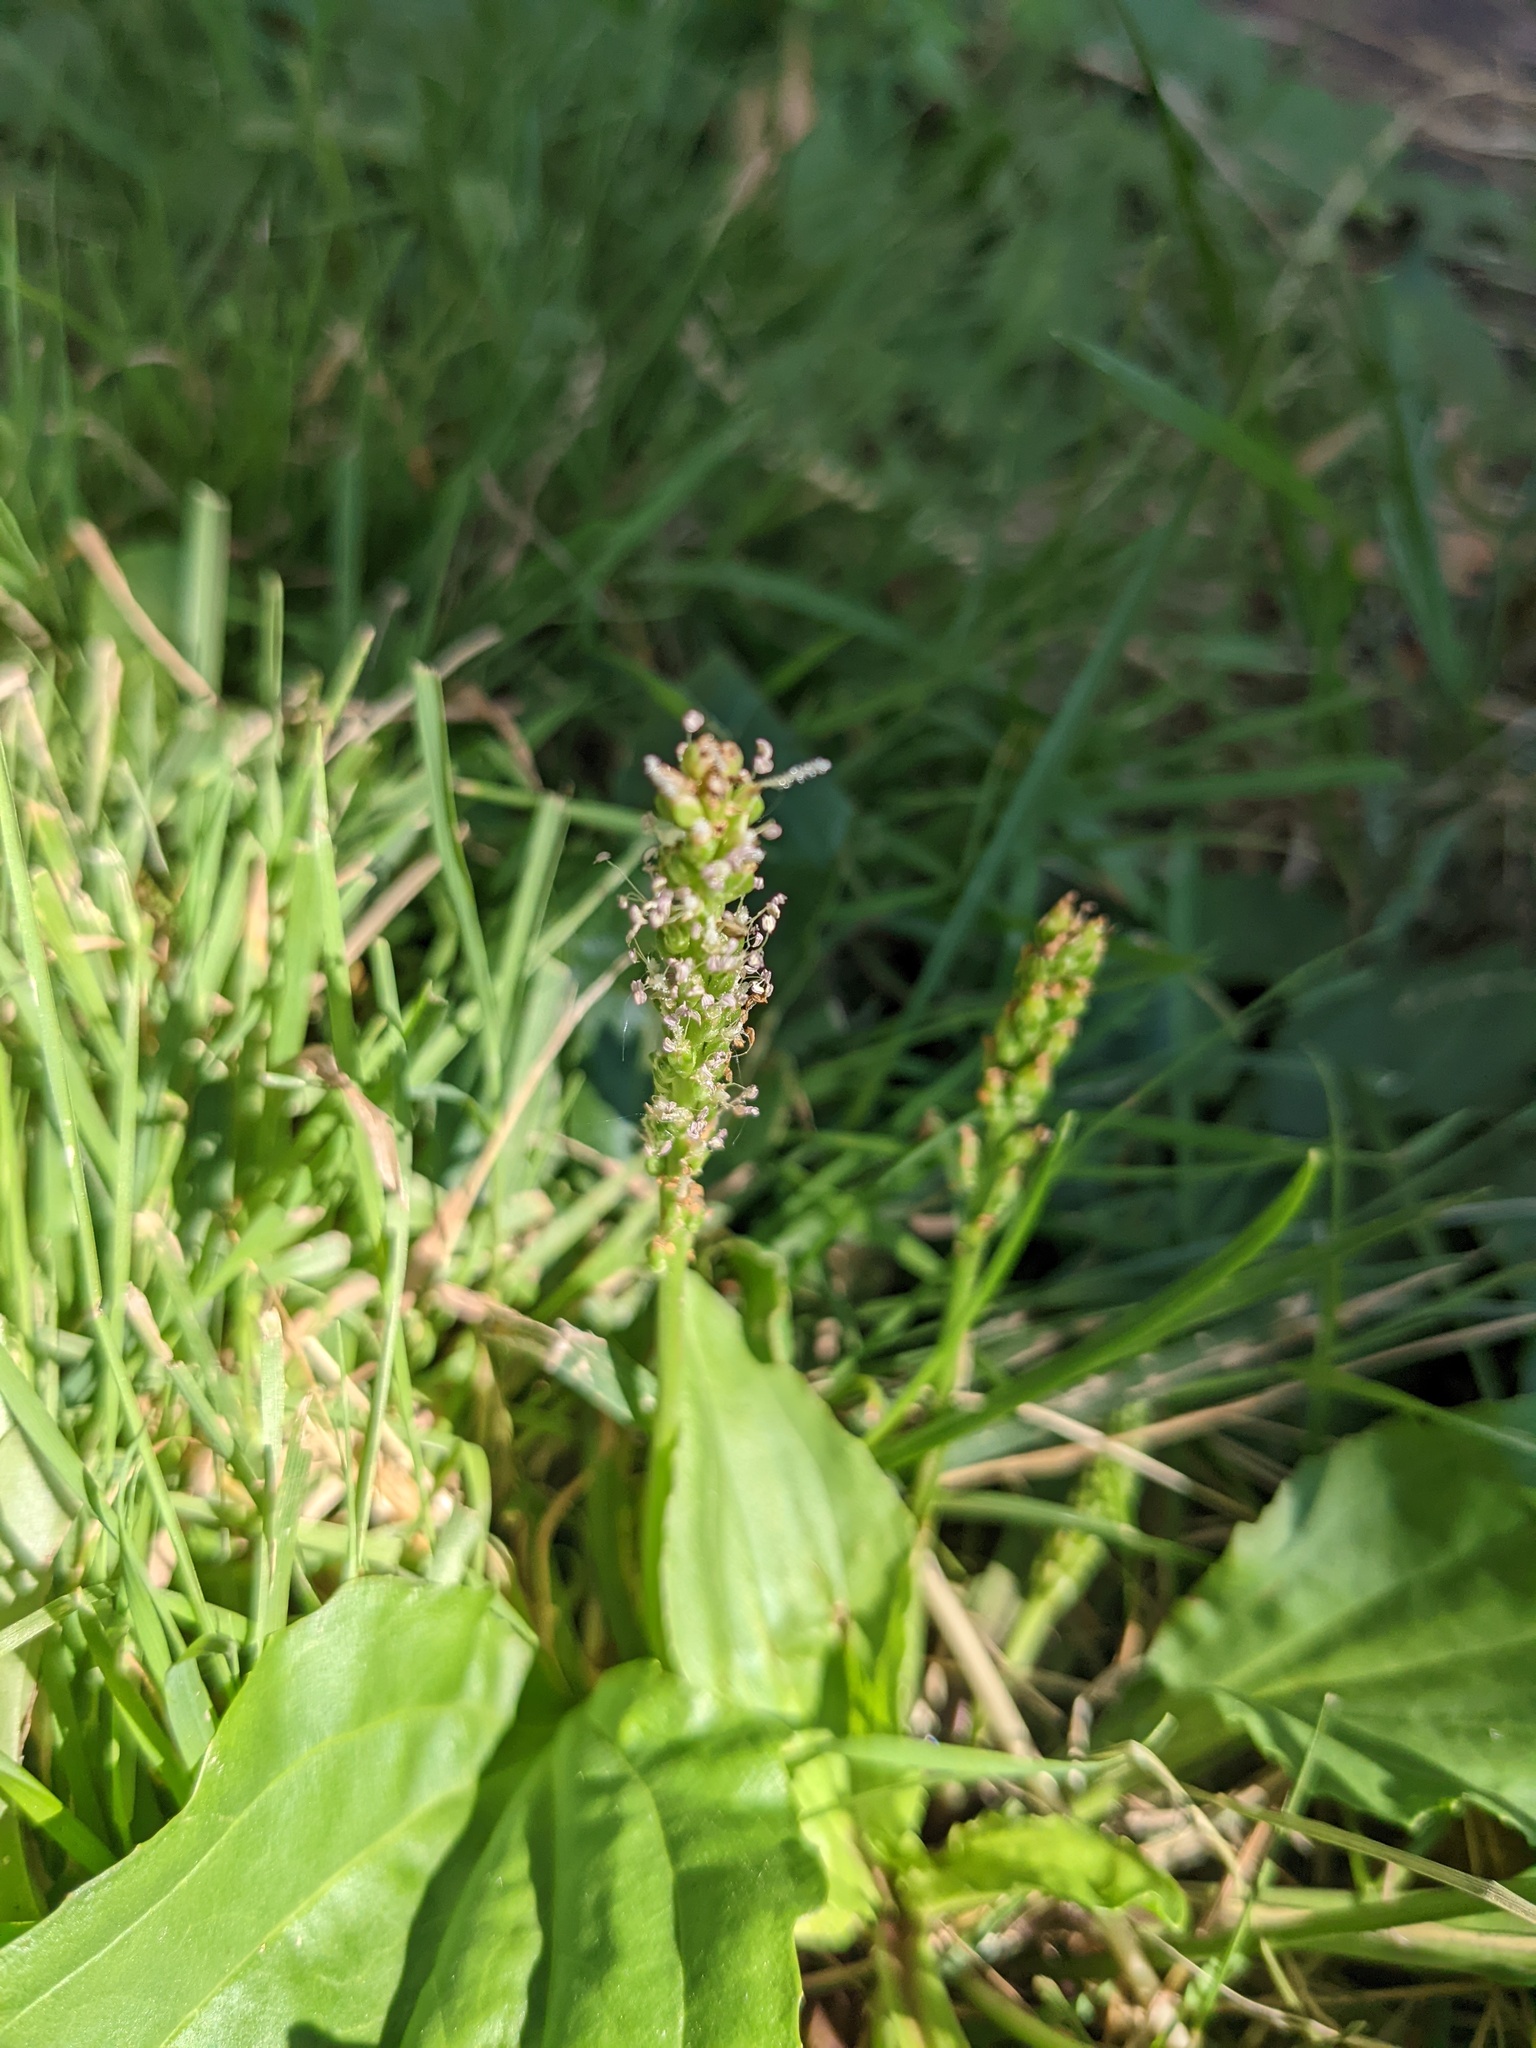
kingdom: Plantae
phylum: Tracheophyta
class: Magnoliopsida
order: Lamiales
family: Plantaginaceae
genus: Plantago
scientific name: Plantago rugelii
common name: American plantain
